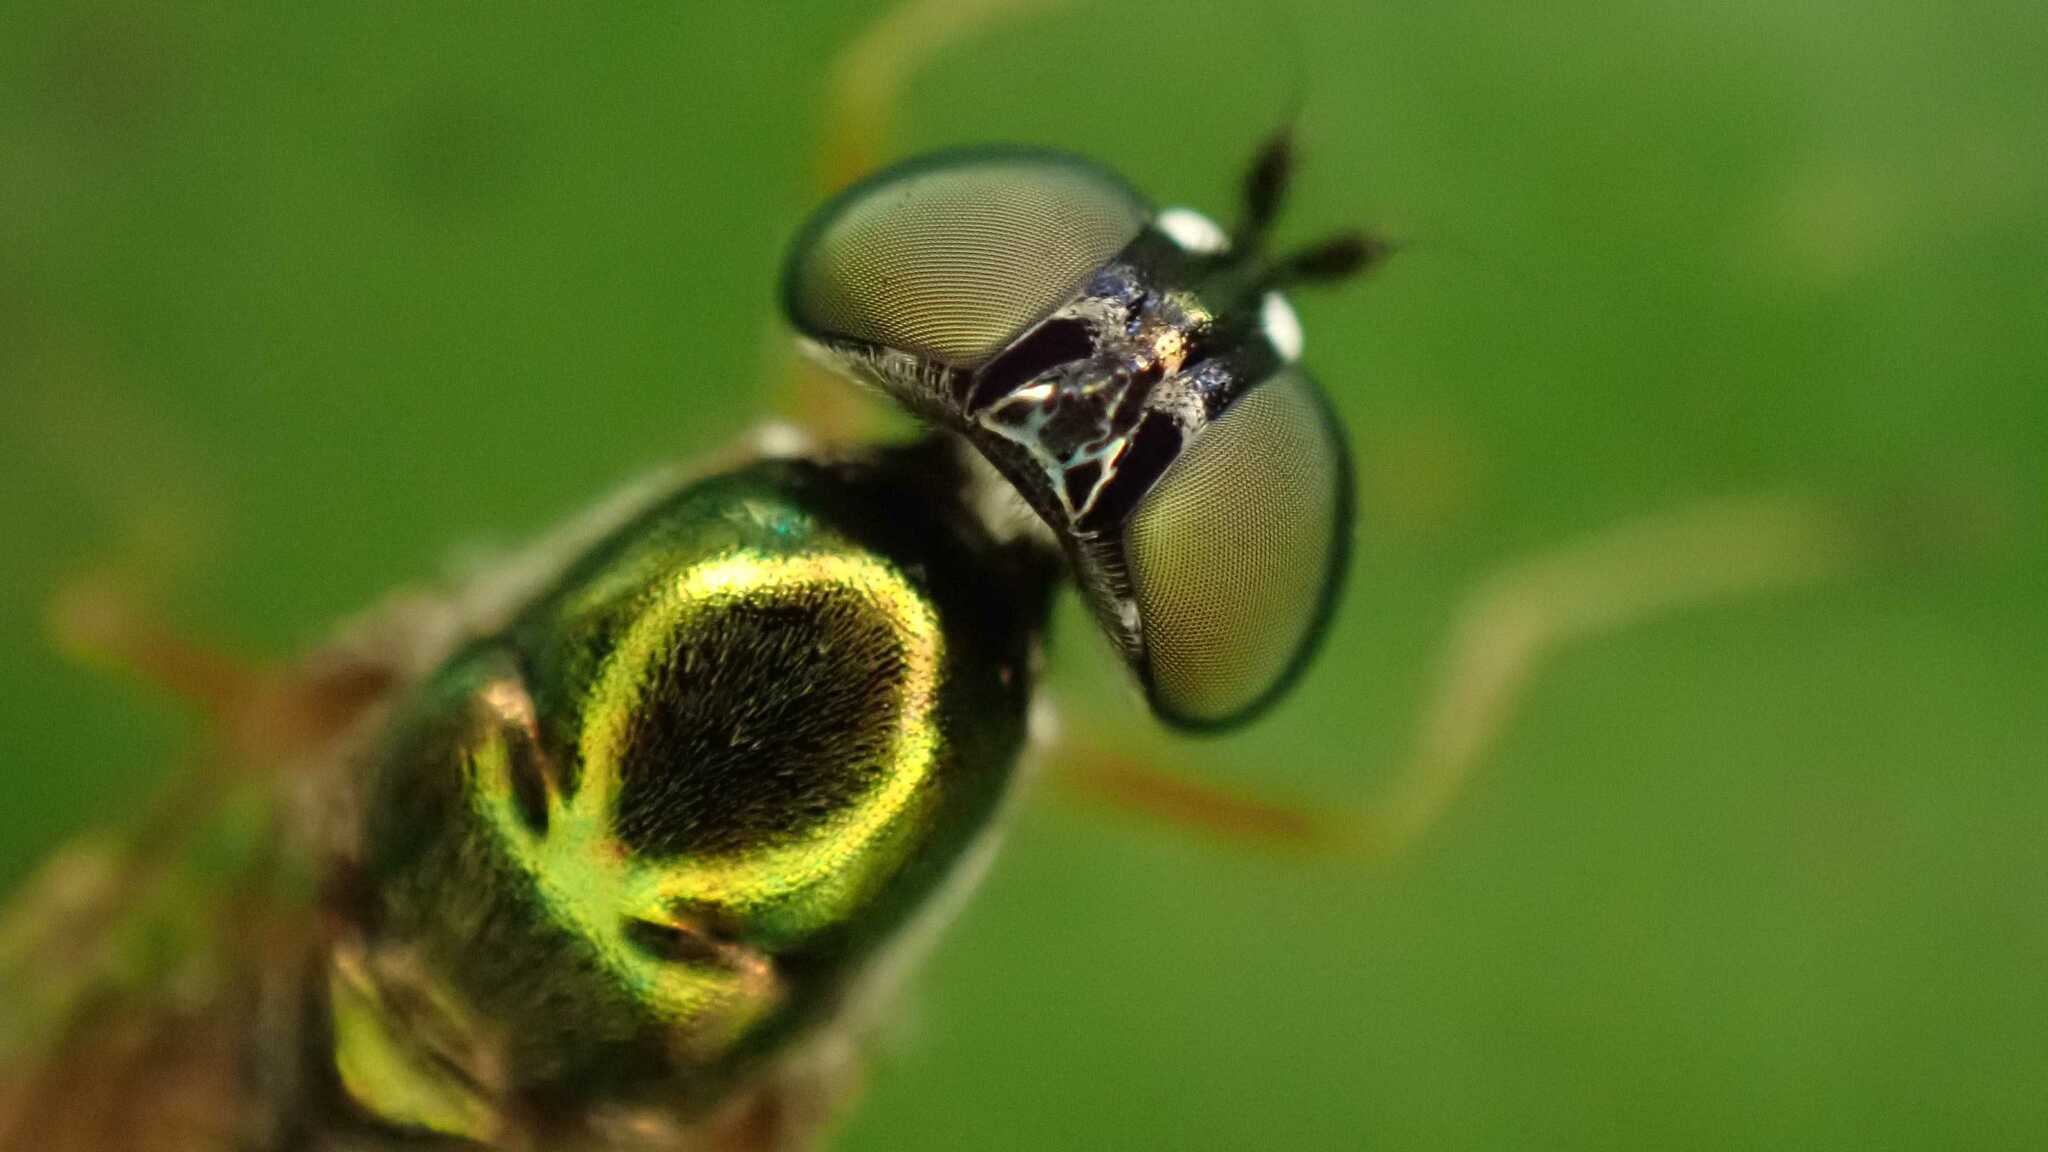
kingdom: Animalia
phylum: Arthropoda
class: Insecta
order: Diptera
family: Stratiomyidae
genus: Sargus
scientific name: Sargus bipunctatus
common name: Twin-spot centurion
